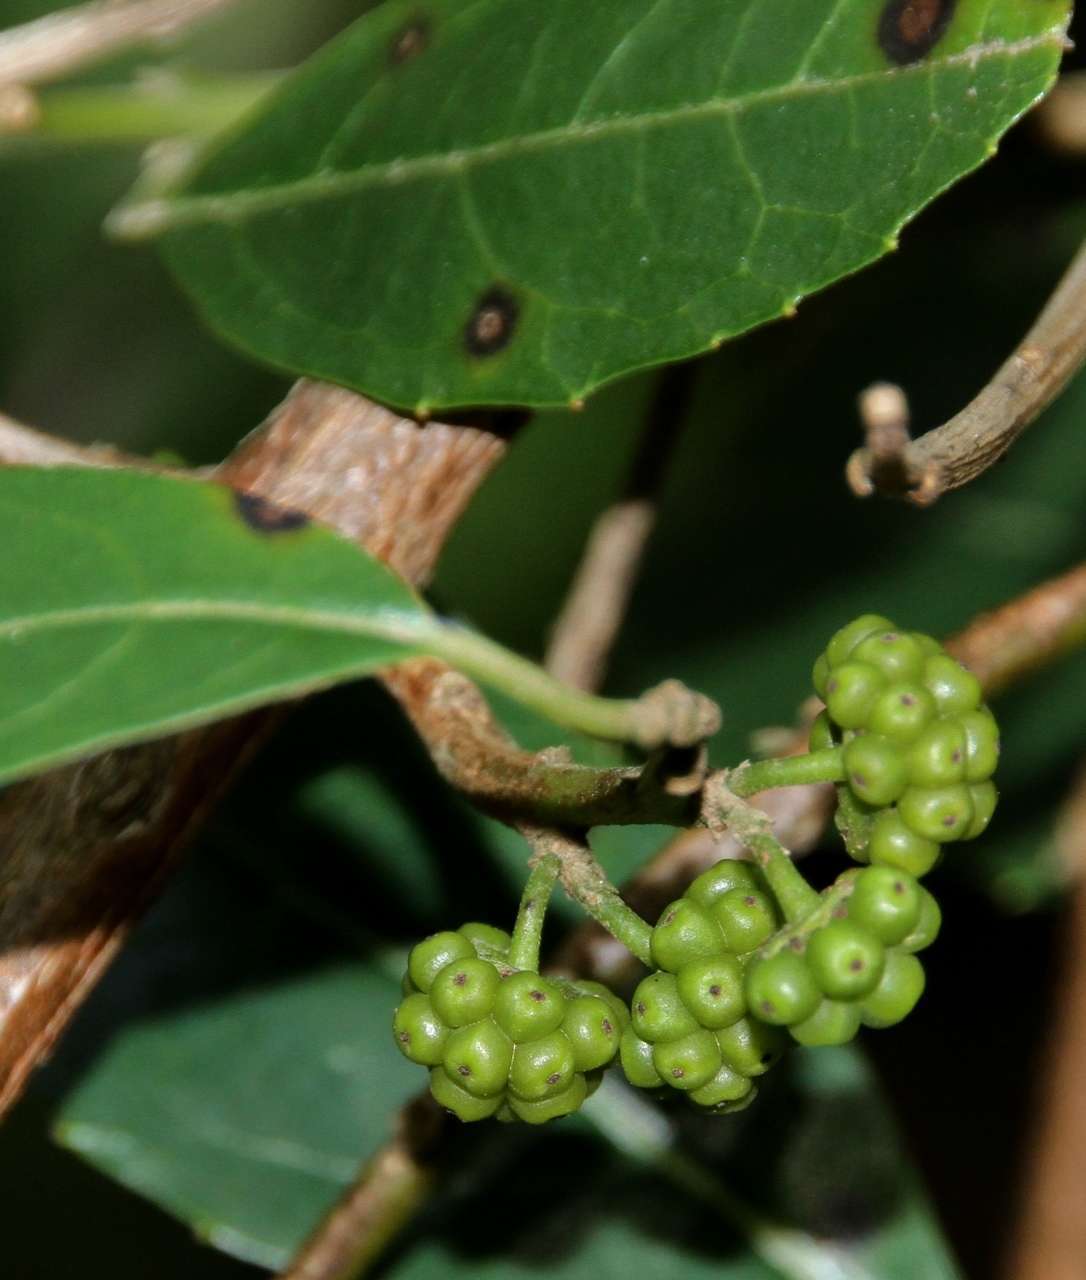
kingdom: Plantae
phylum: Tracheophyta
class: Magnoliopsida
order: Laurales
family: Monimiaceae
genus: Hedycarya
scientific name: Hedycarya angustifolia
